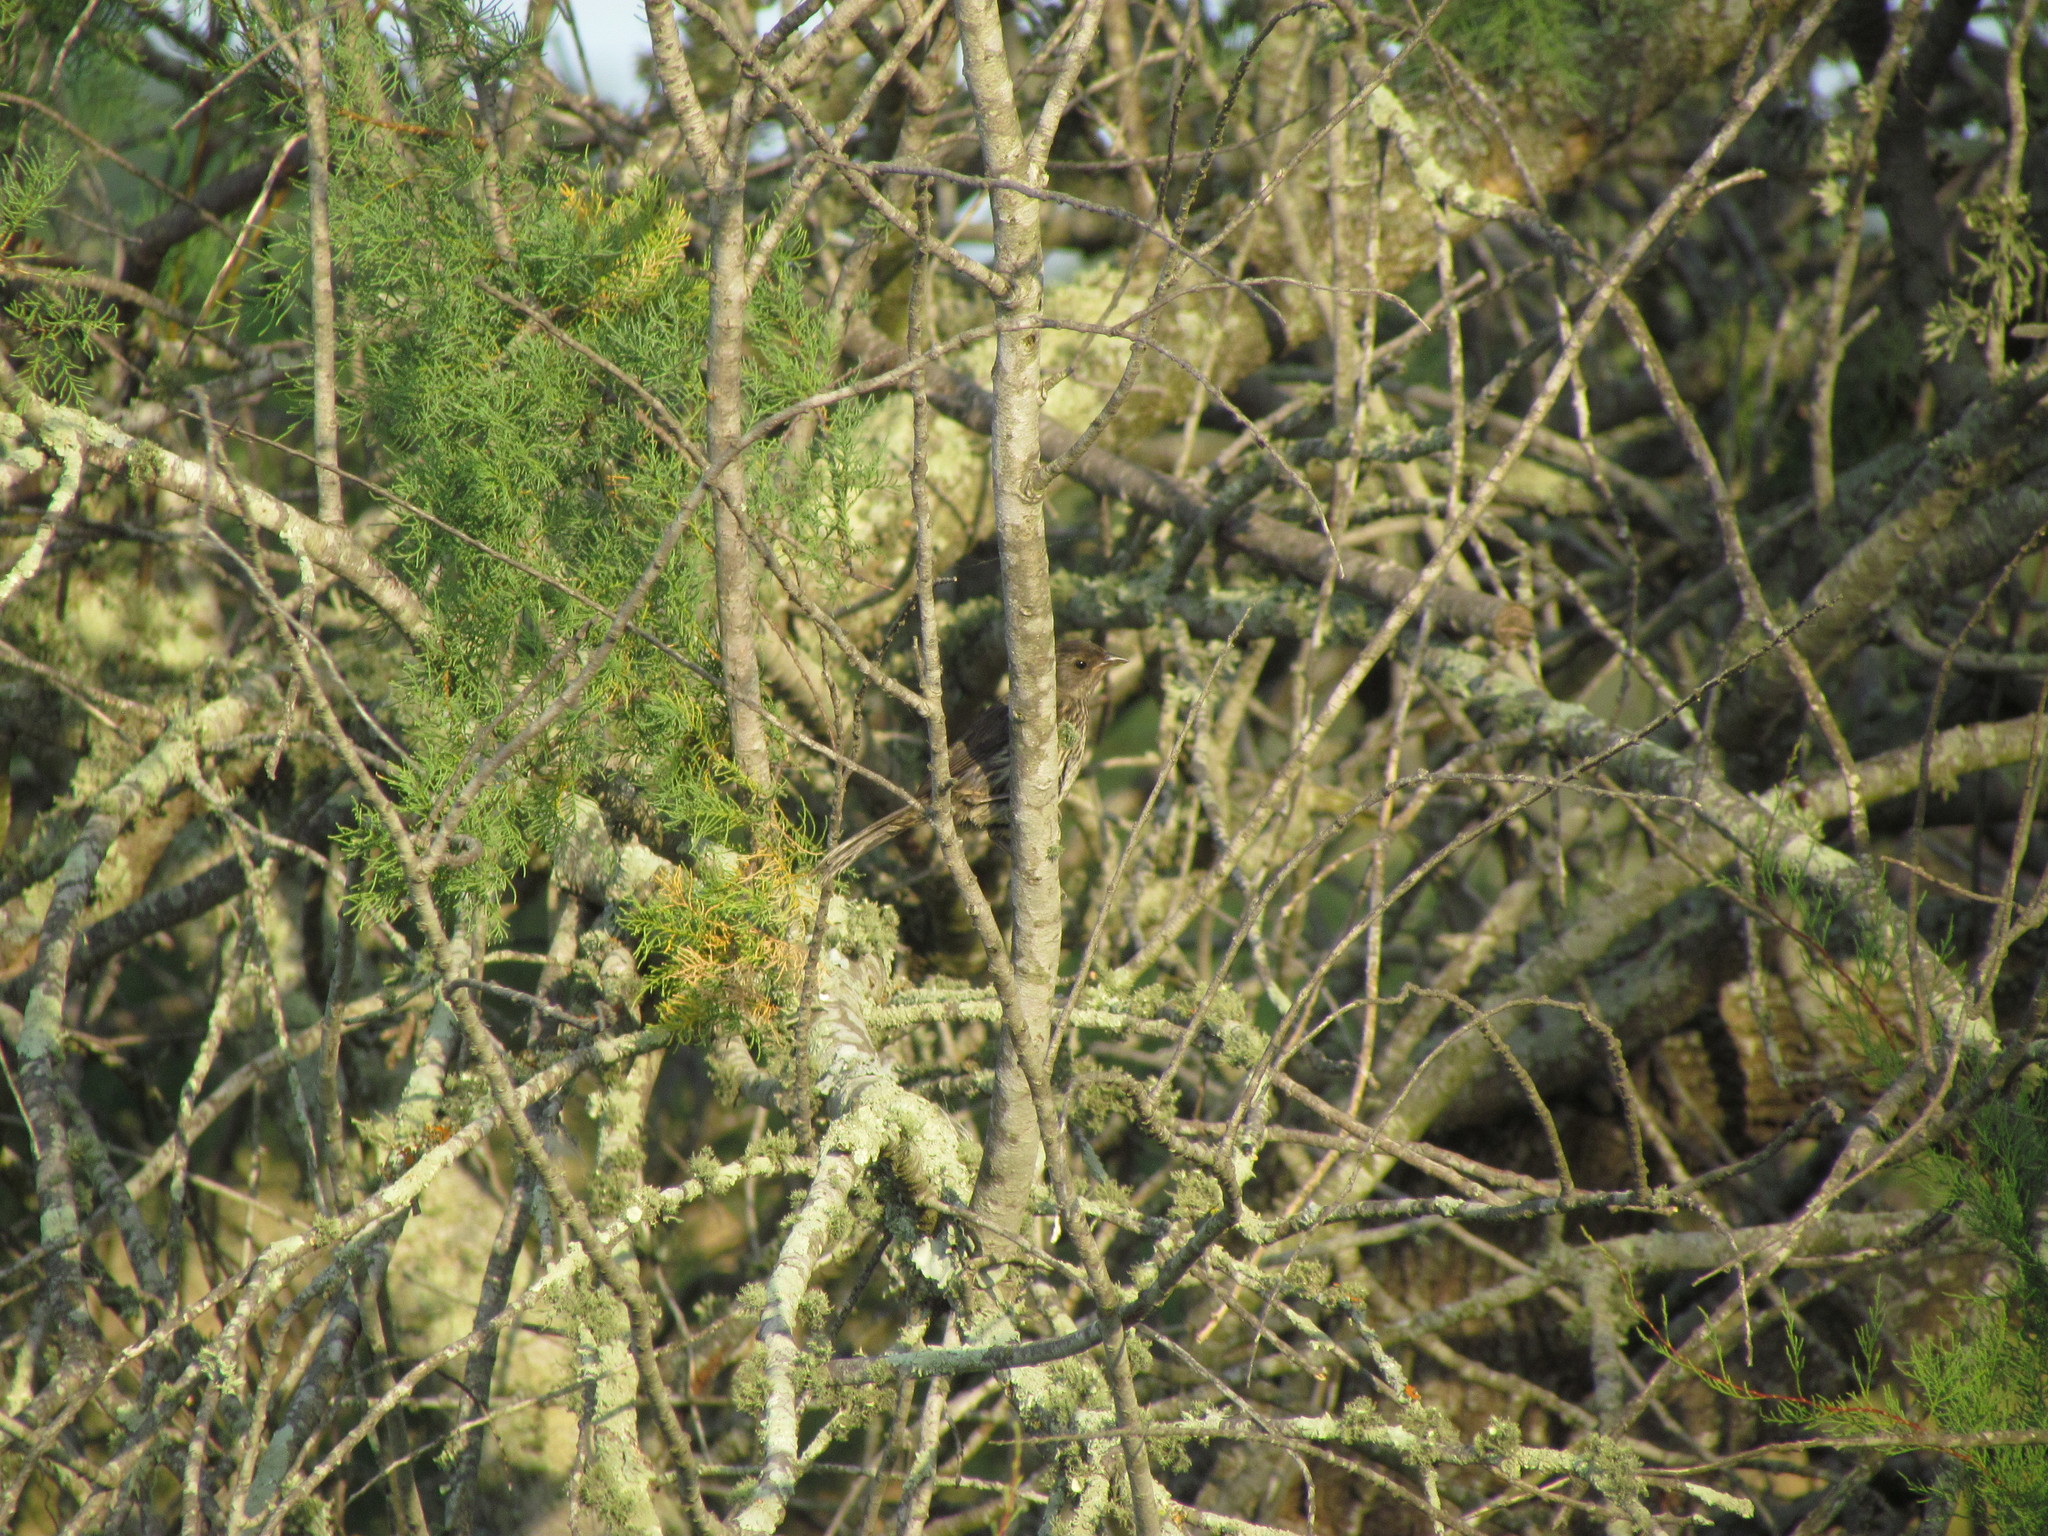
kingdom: Animalia
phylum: Chordata
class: Aves
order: Passeriformes
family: Thraupidae
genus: Poospiza
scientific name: Poospiza nigrorufa
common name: Black-and-rufous warbling finch
